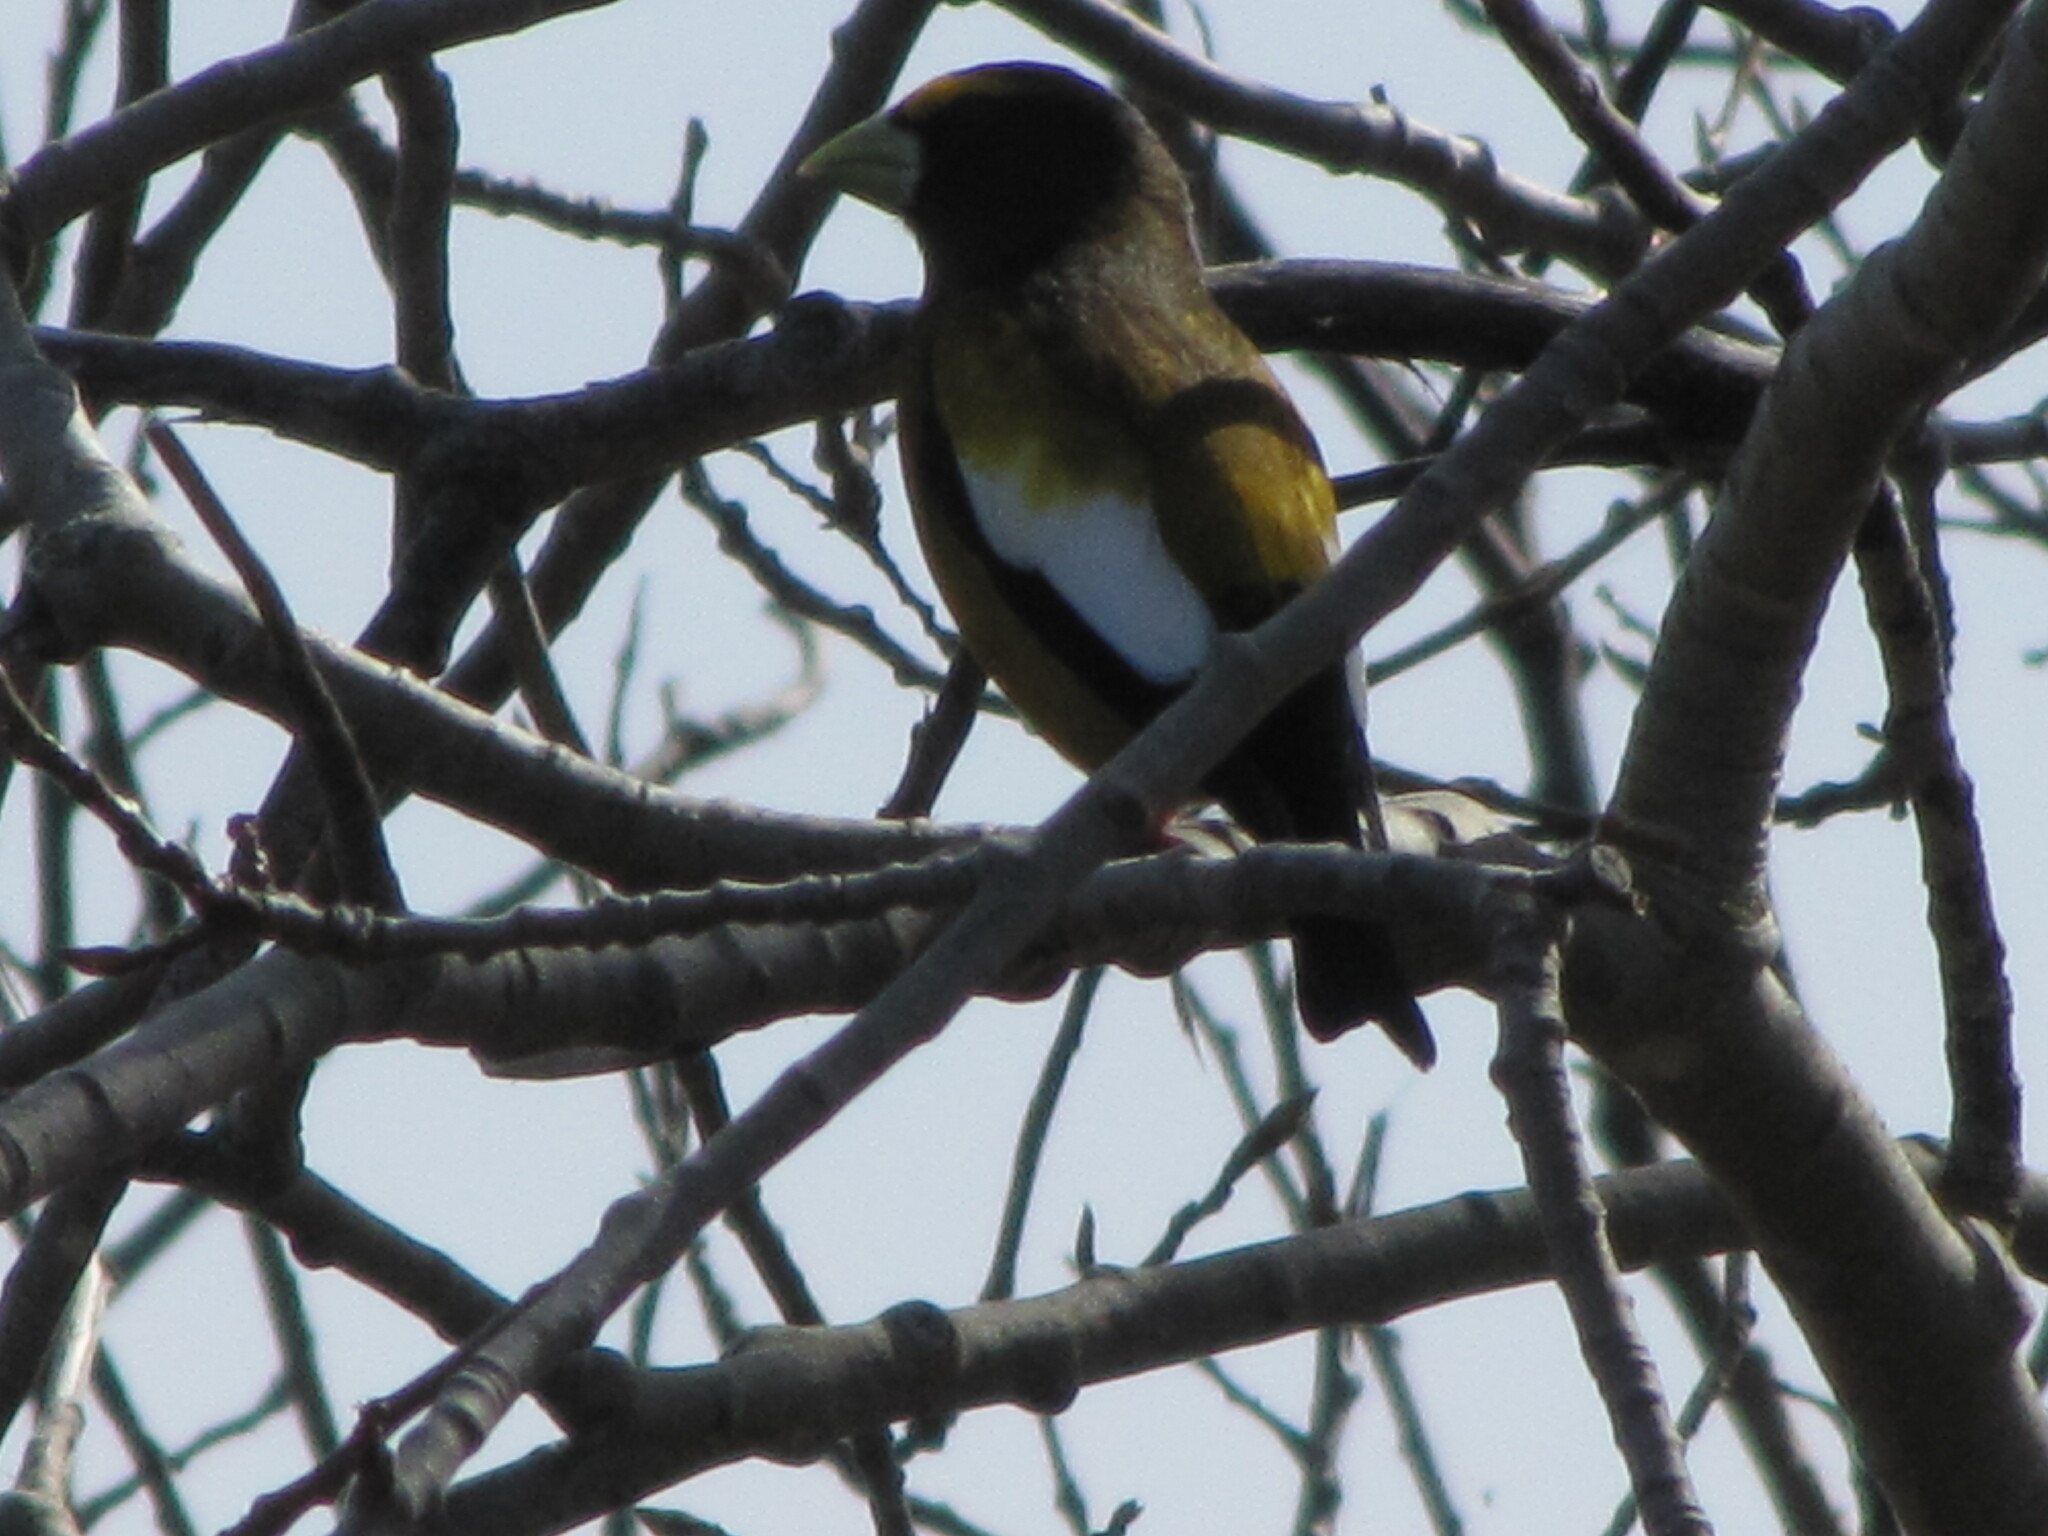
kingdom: Animalia
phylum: Chordata
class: Aves
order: Passeriformes
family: Fringillidae
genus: Hesperiphona
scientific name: Hesperiphona vespertina
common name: Evening grosbeak
